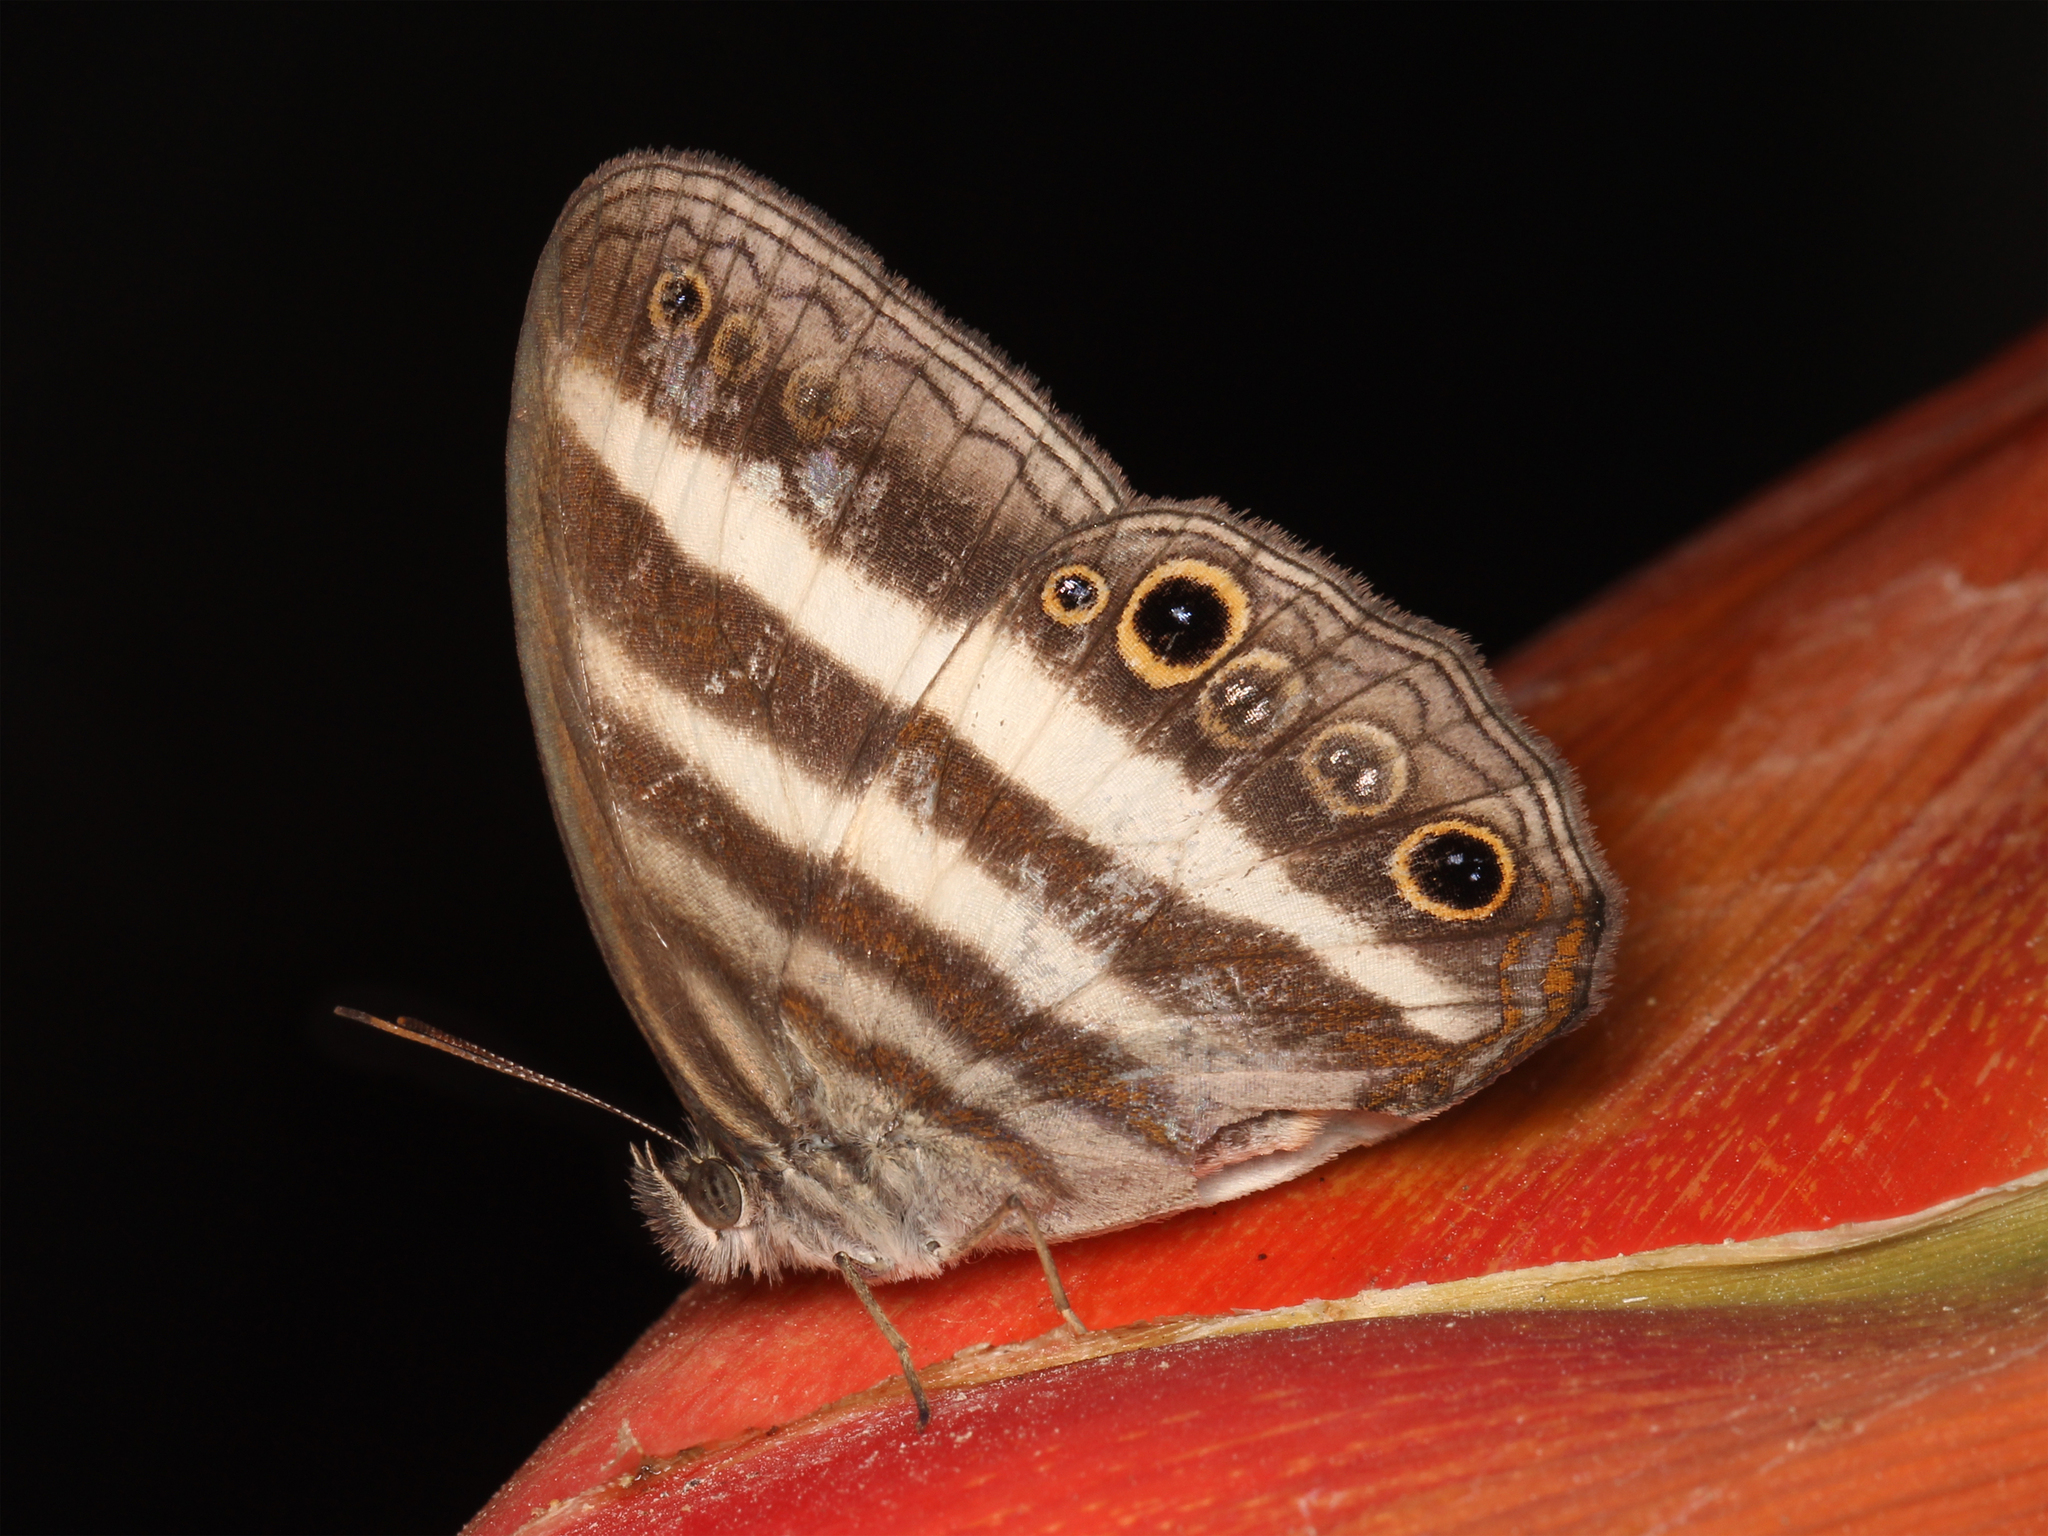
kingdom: Animalia
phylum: Arthropoda
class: Insecta
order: Lepidoptera
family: Nymphalidae
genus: Pareuptychia
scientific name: Pareuptychia hesione
